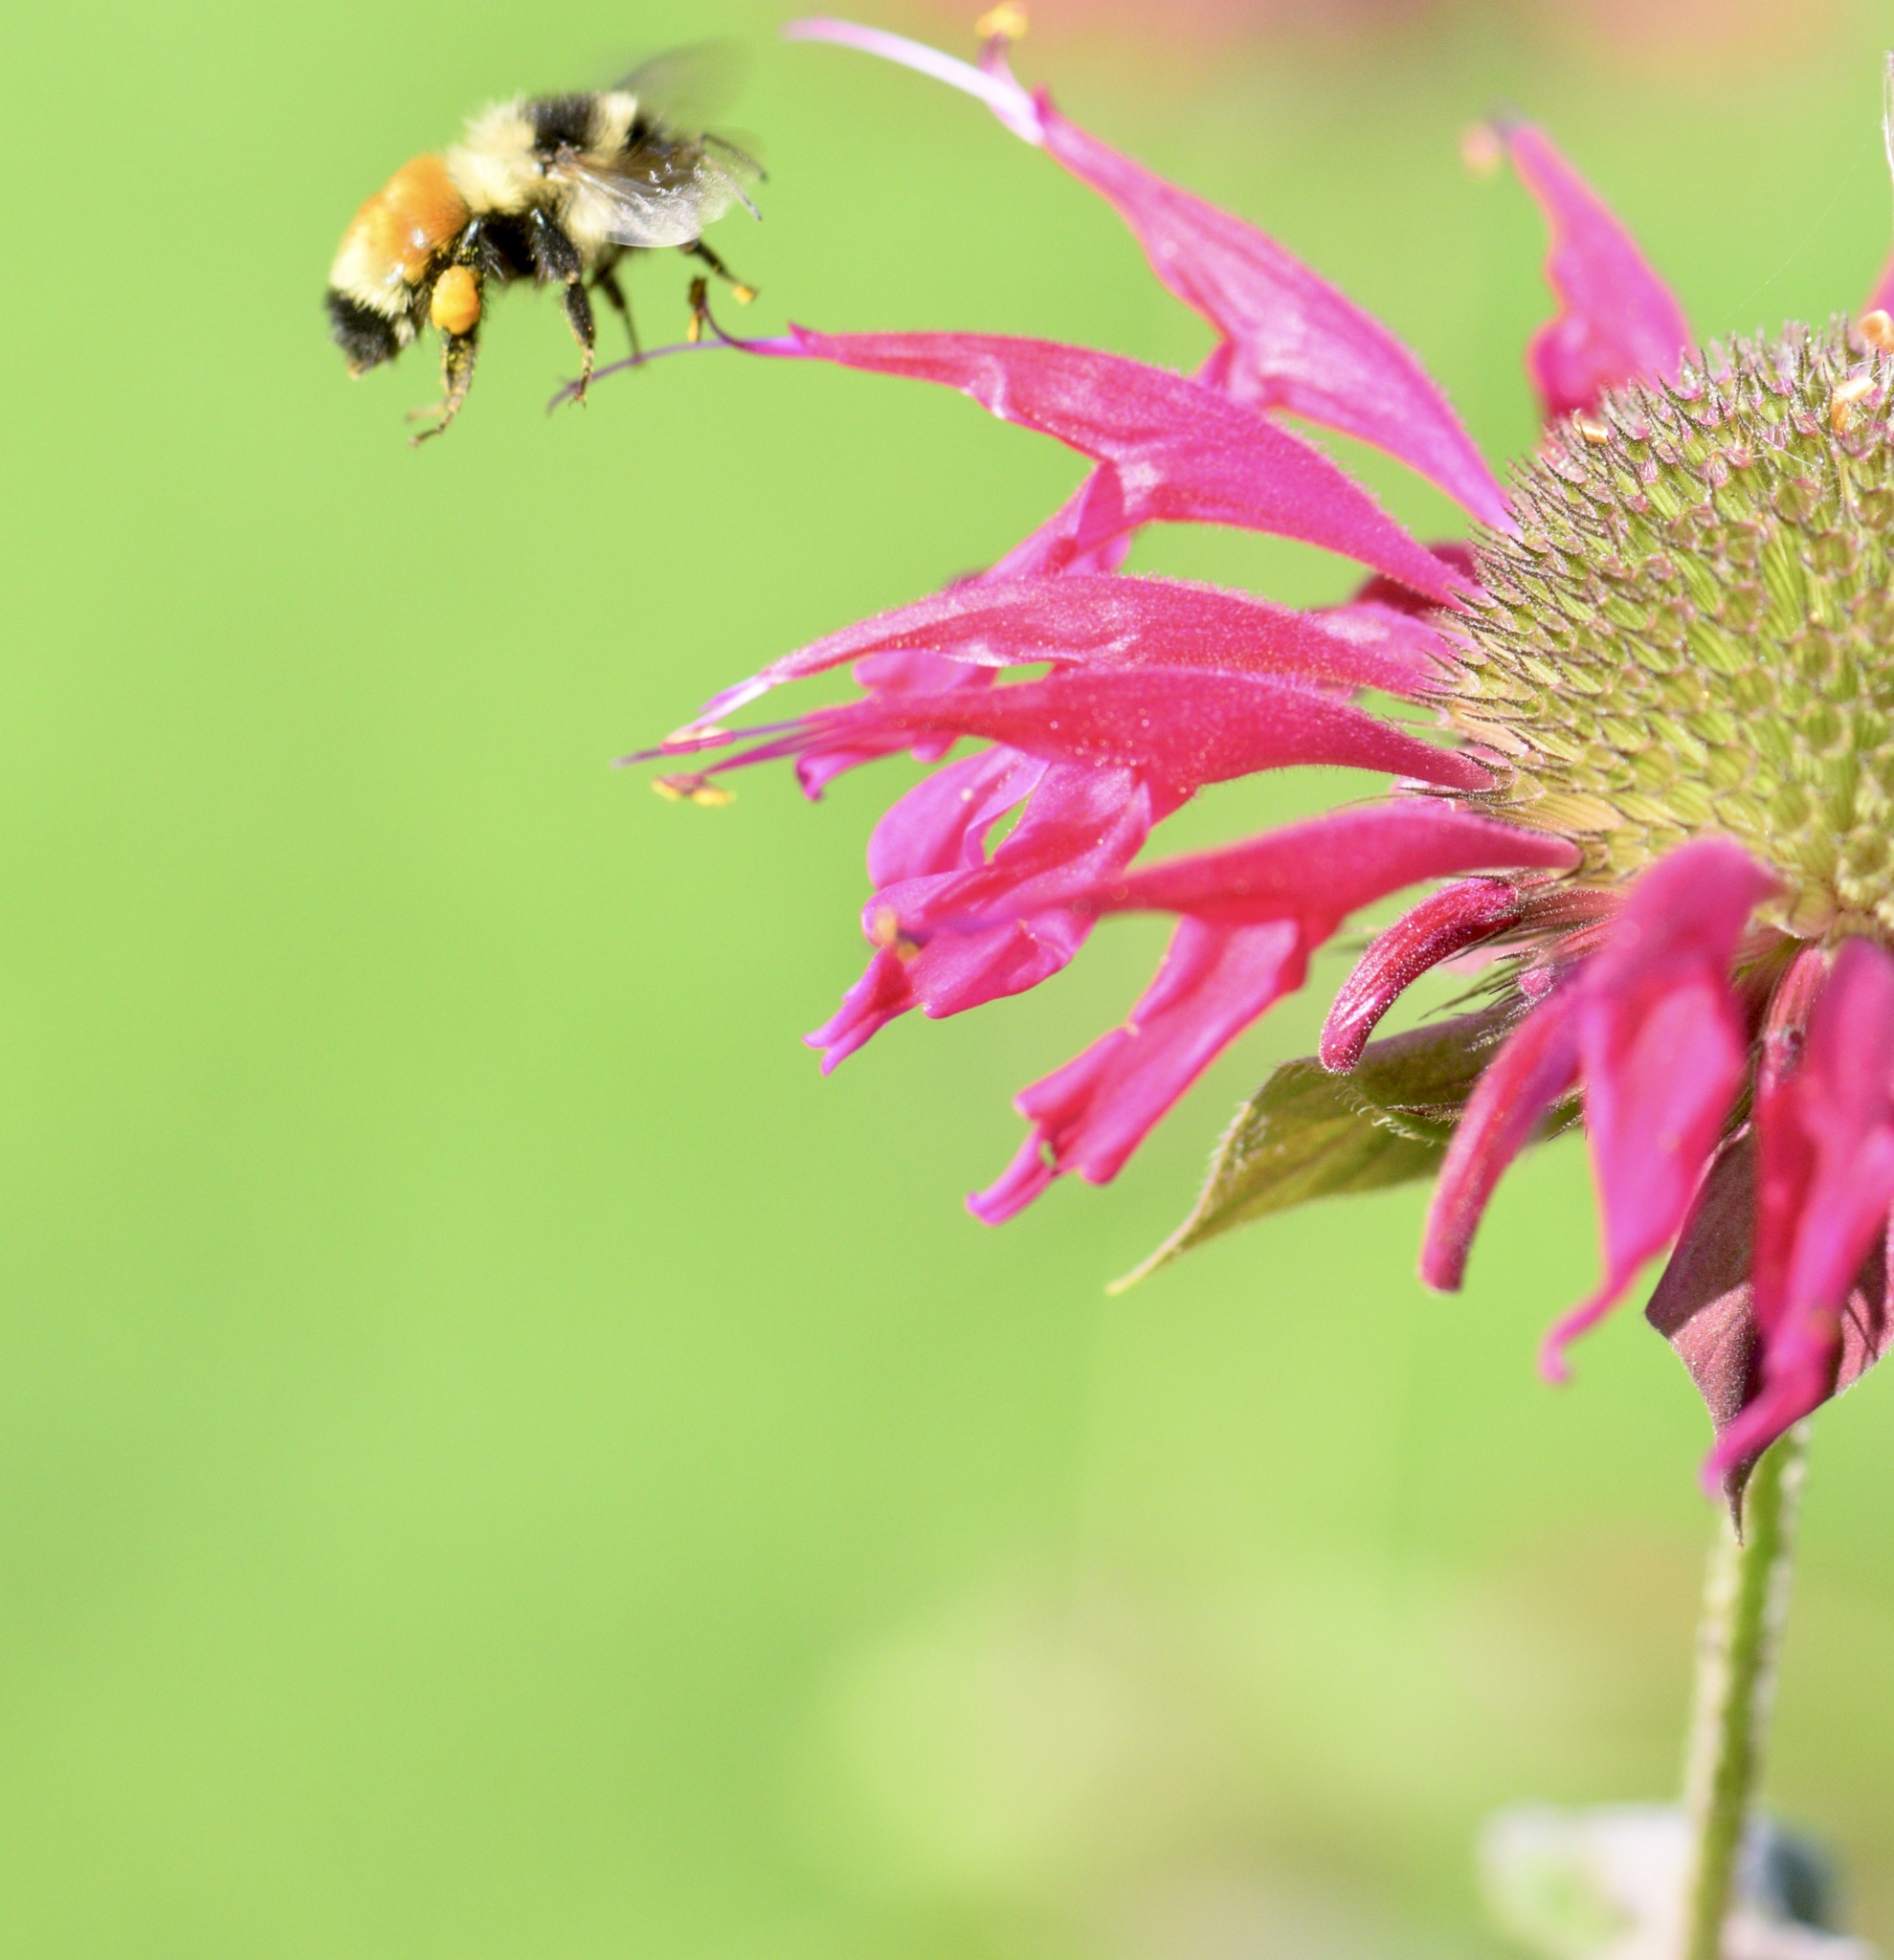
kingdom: Animalia
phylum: Arthropoda
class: Insecta
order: Hymenoptera
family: Apidae
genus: Bombus
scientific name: Bombus ternarius
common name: Tri-colored bumble bee
